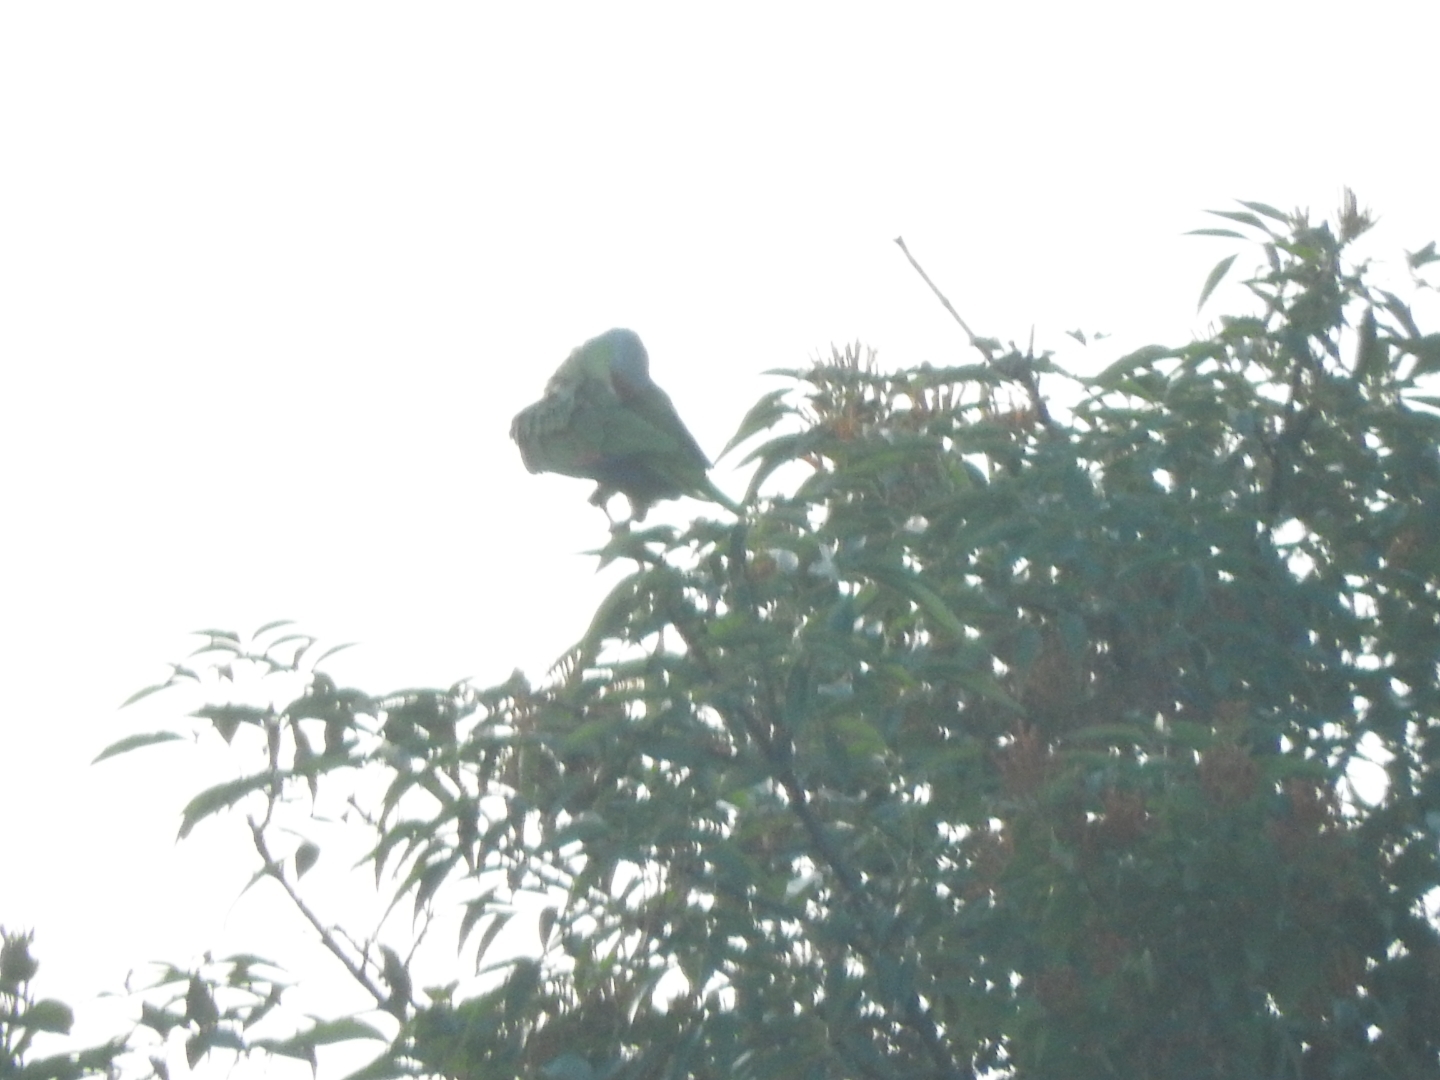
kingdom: Animalia
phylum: Chordata
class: Aves
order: Psittaciformes
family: Psittacidae
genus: Amazona
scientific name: Amazona finschi
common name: Lilac-crowned amazon
